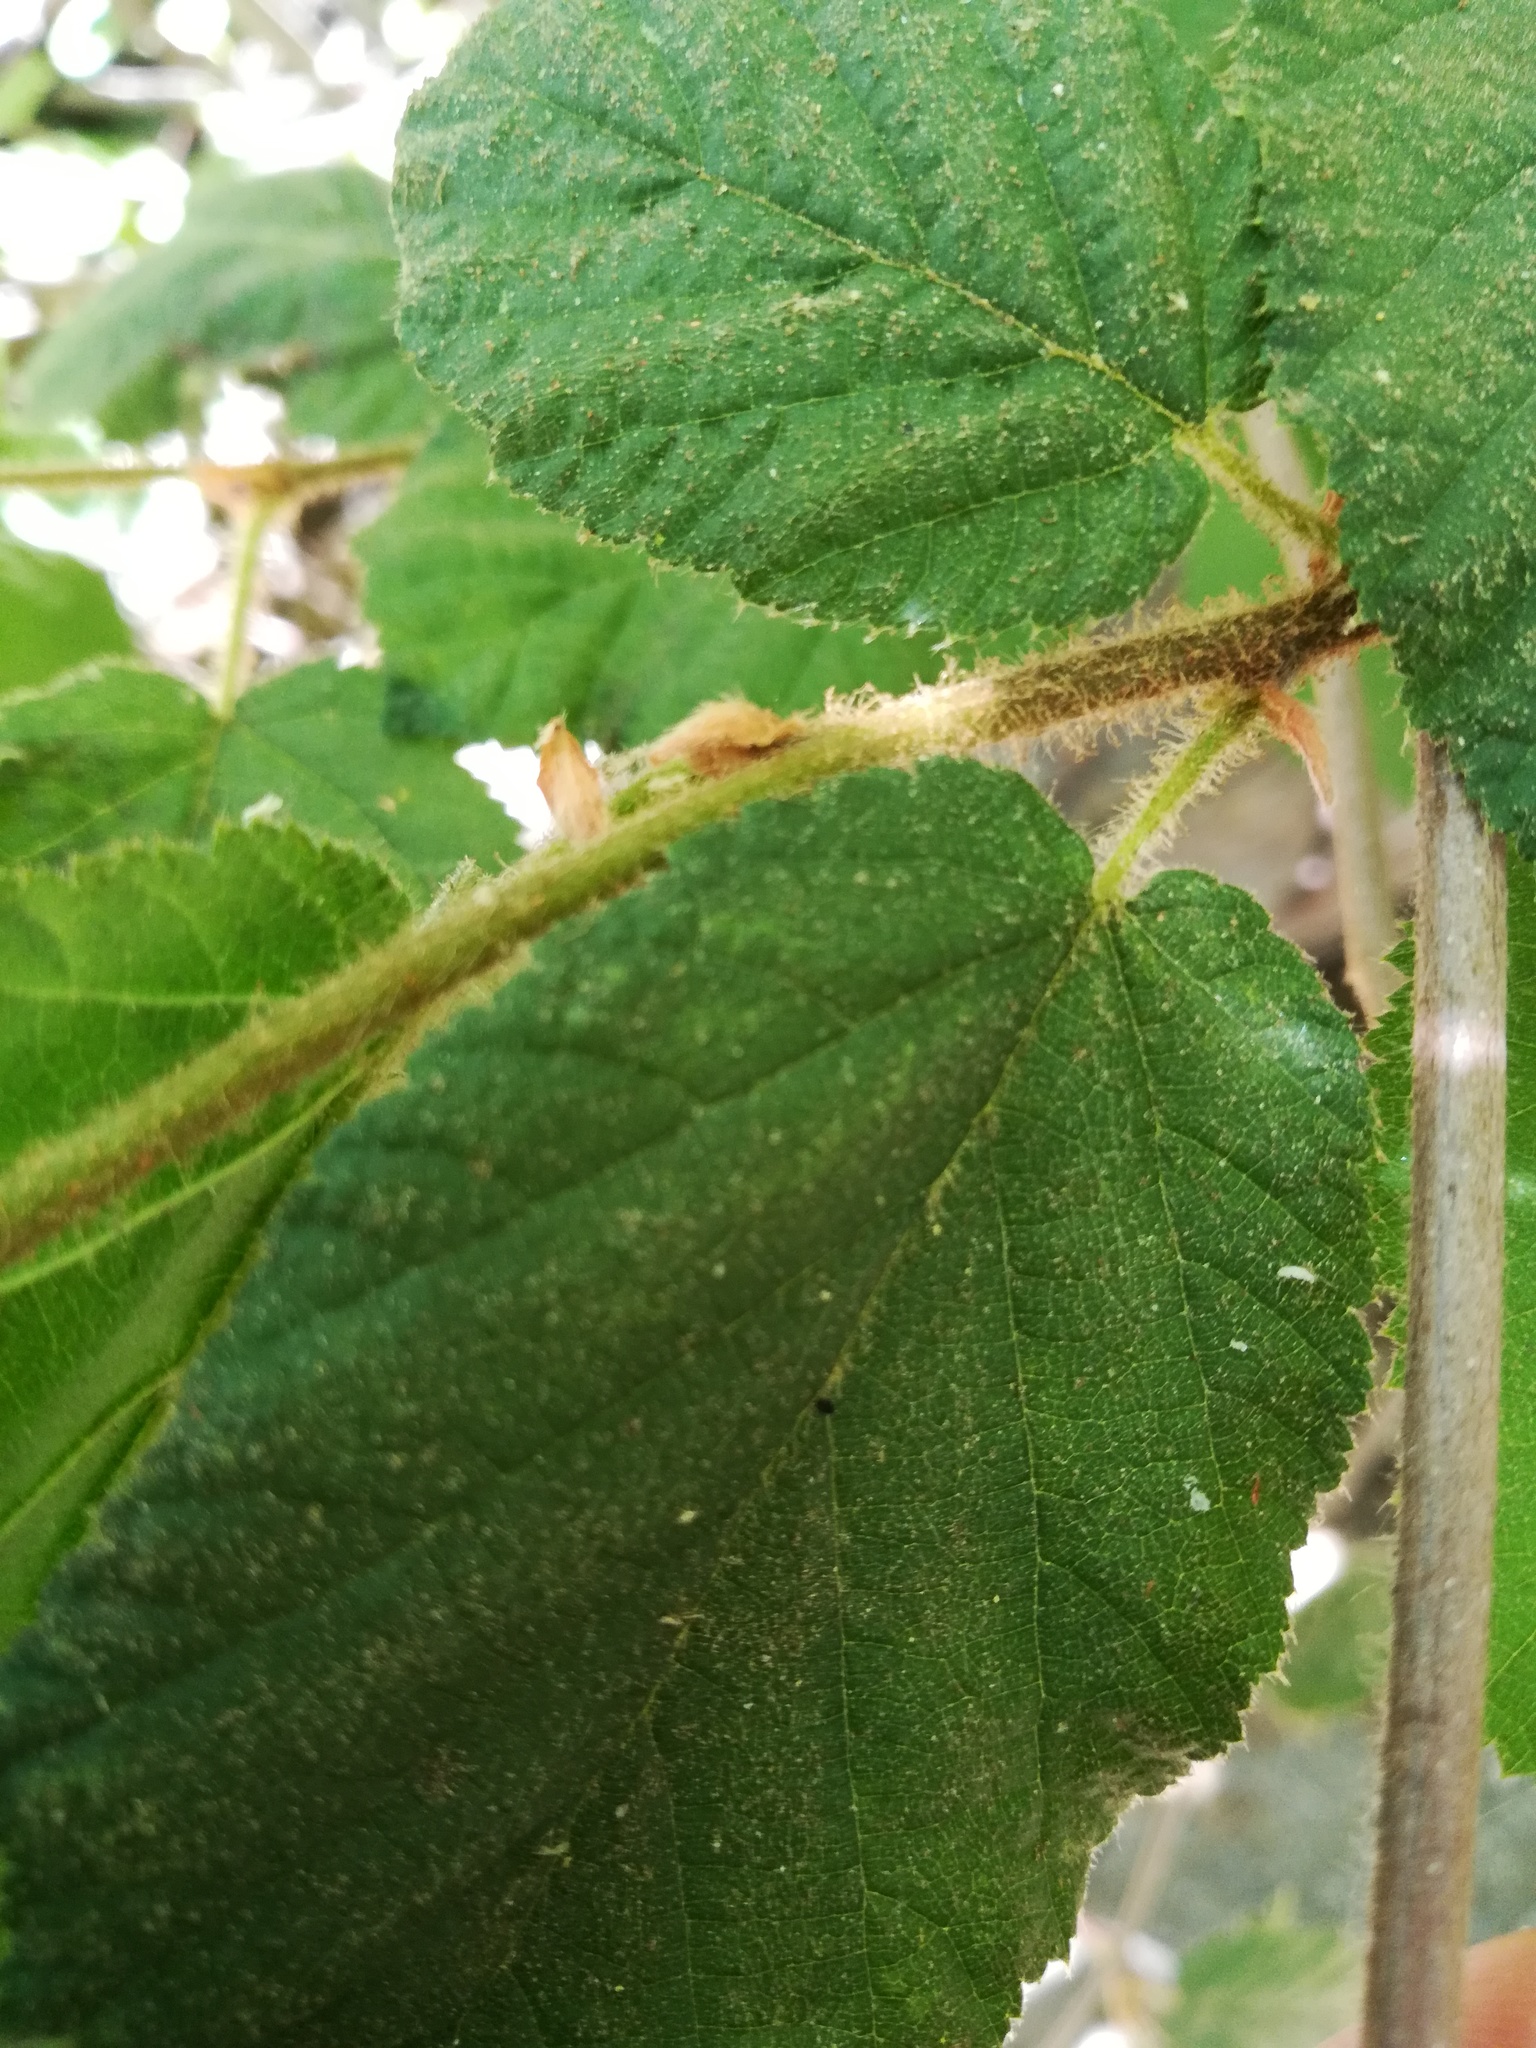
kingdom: Plantae
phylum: Tracheophyta
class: Magnoliopsida
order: Fagales
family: Betulaceae
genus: Corylus
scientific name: Corylus cornuta
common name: Beaked hazel
